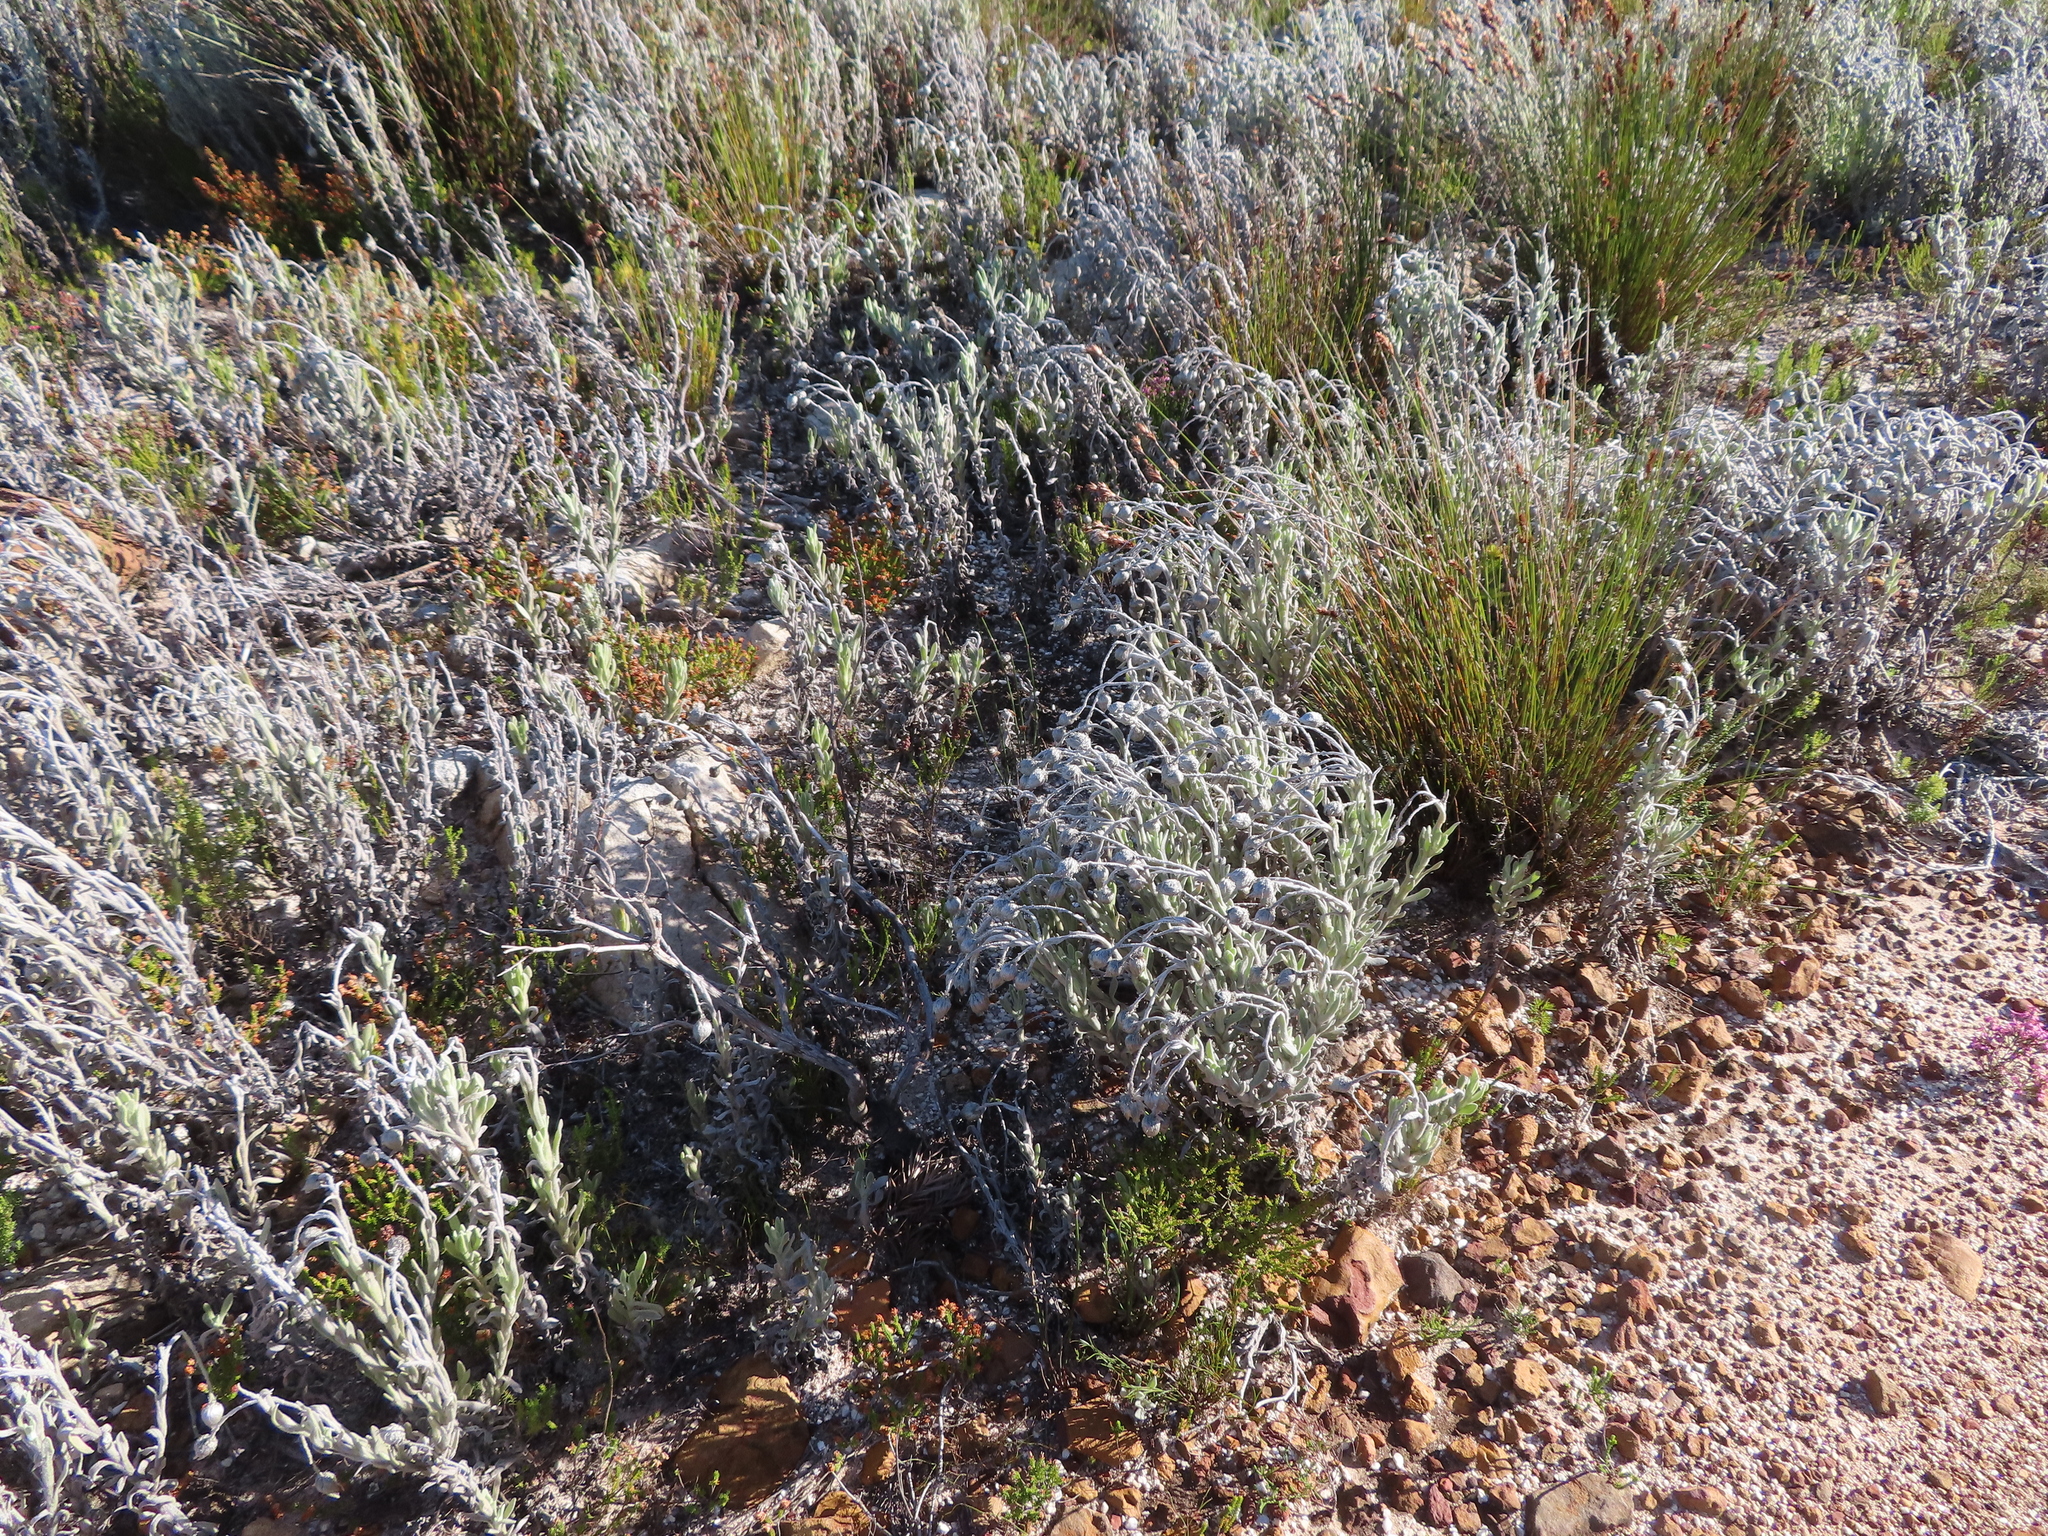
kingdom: Plantae
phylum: Tracheophyta
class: Magnoliopsida
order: Asterales
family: Asteraceae
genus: Syncarpha
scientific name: Syncarpha vestita
